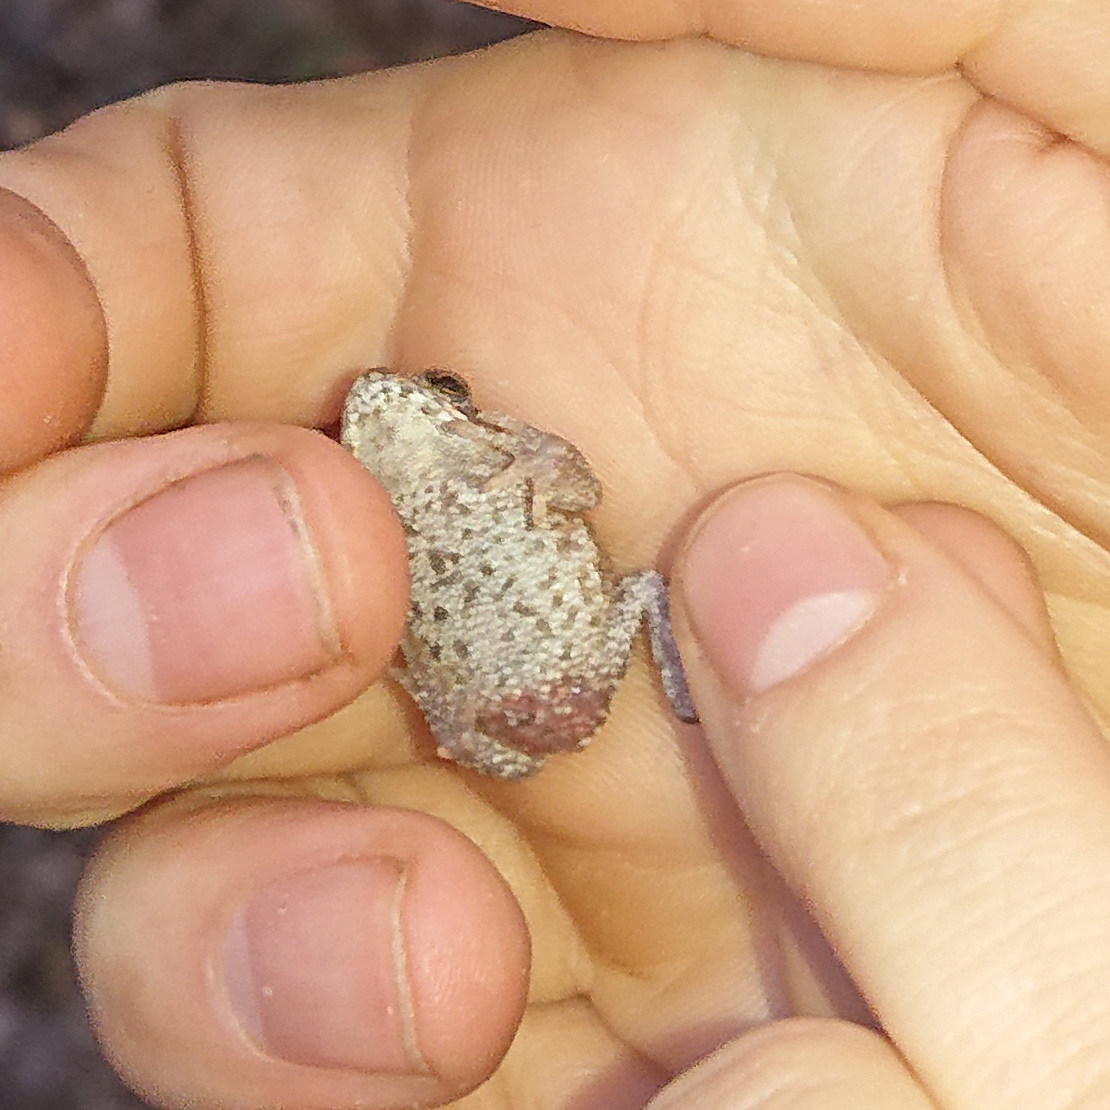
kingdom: Animalia
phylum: Chordata
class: Amphibia
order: Anura
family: Bufonidae
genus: Bufo
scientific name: Bufo bufo
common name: Common toad
